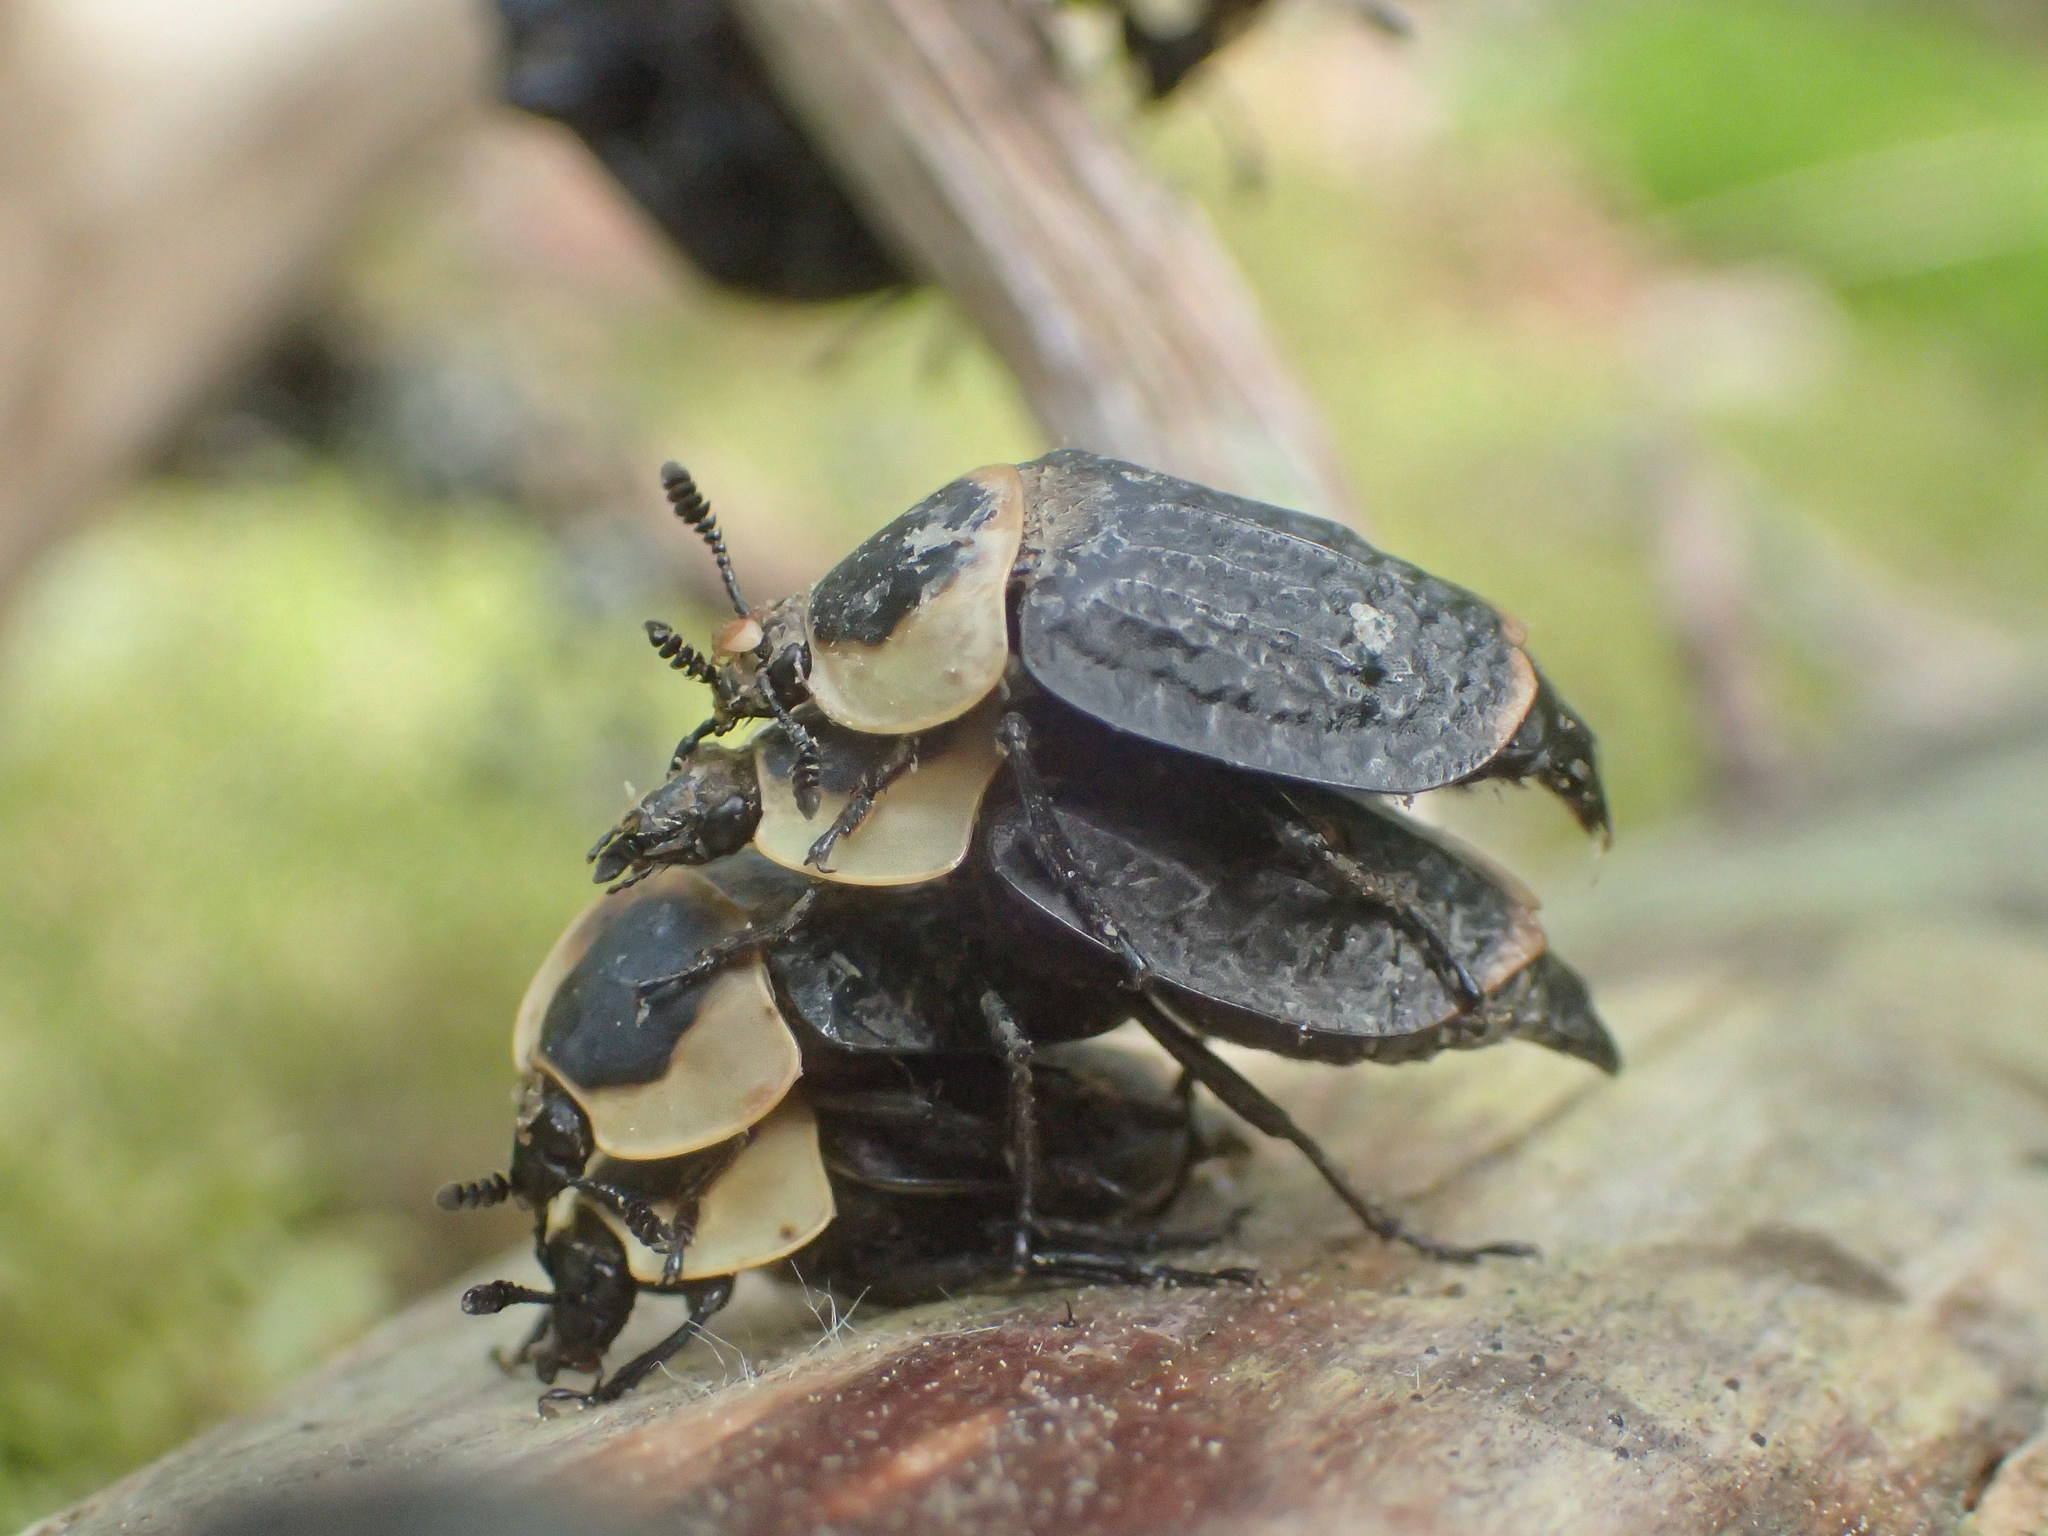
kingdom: Animalia
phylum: Arthropoda
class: Insecta
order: Coleoptera
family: Staphylinidae
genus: Necrophila
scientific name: Necrophila americana
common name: American carrion beetle
